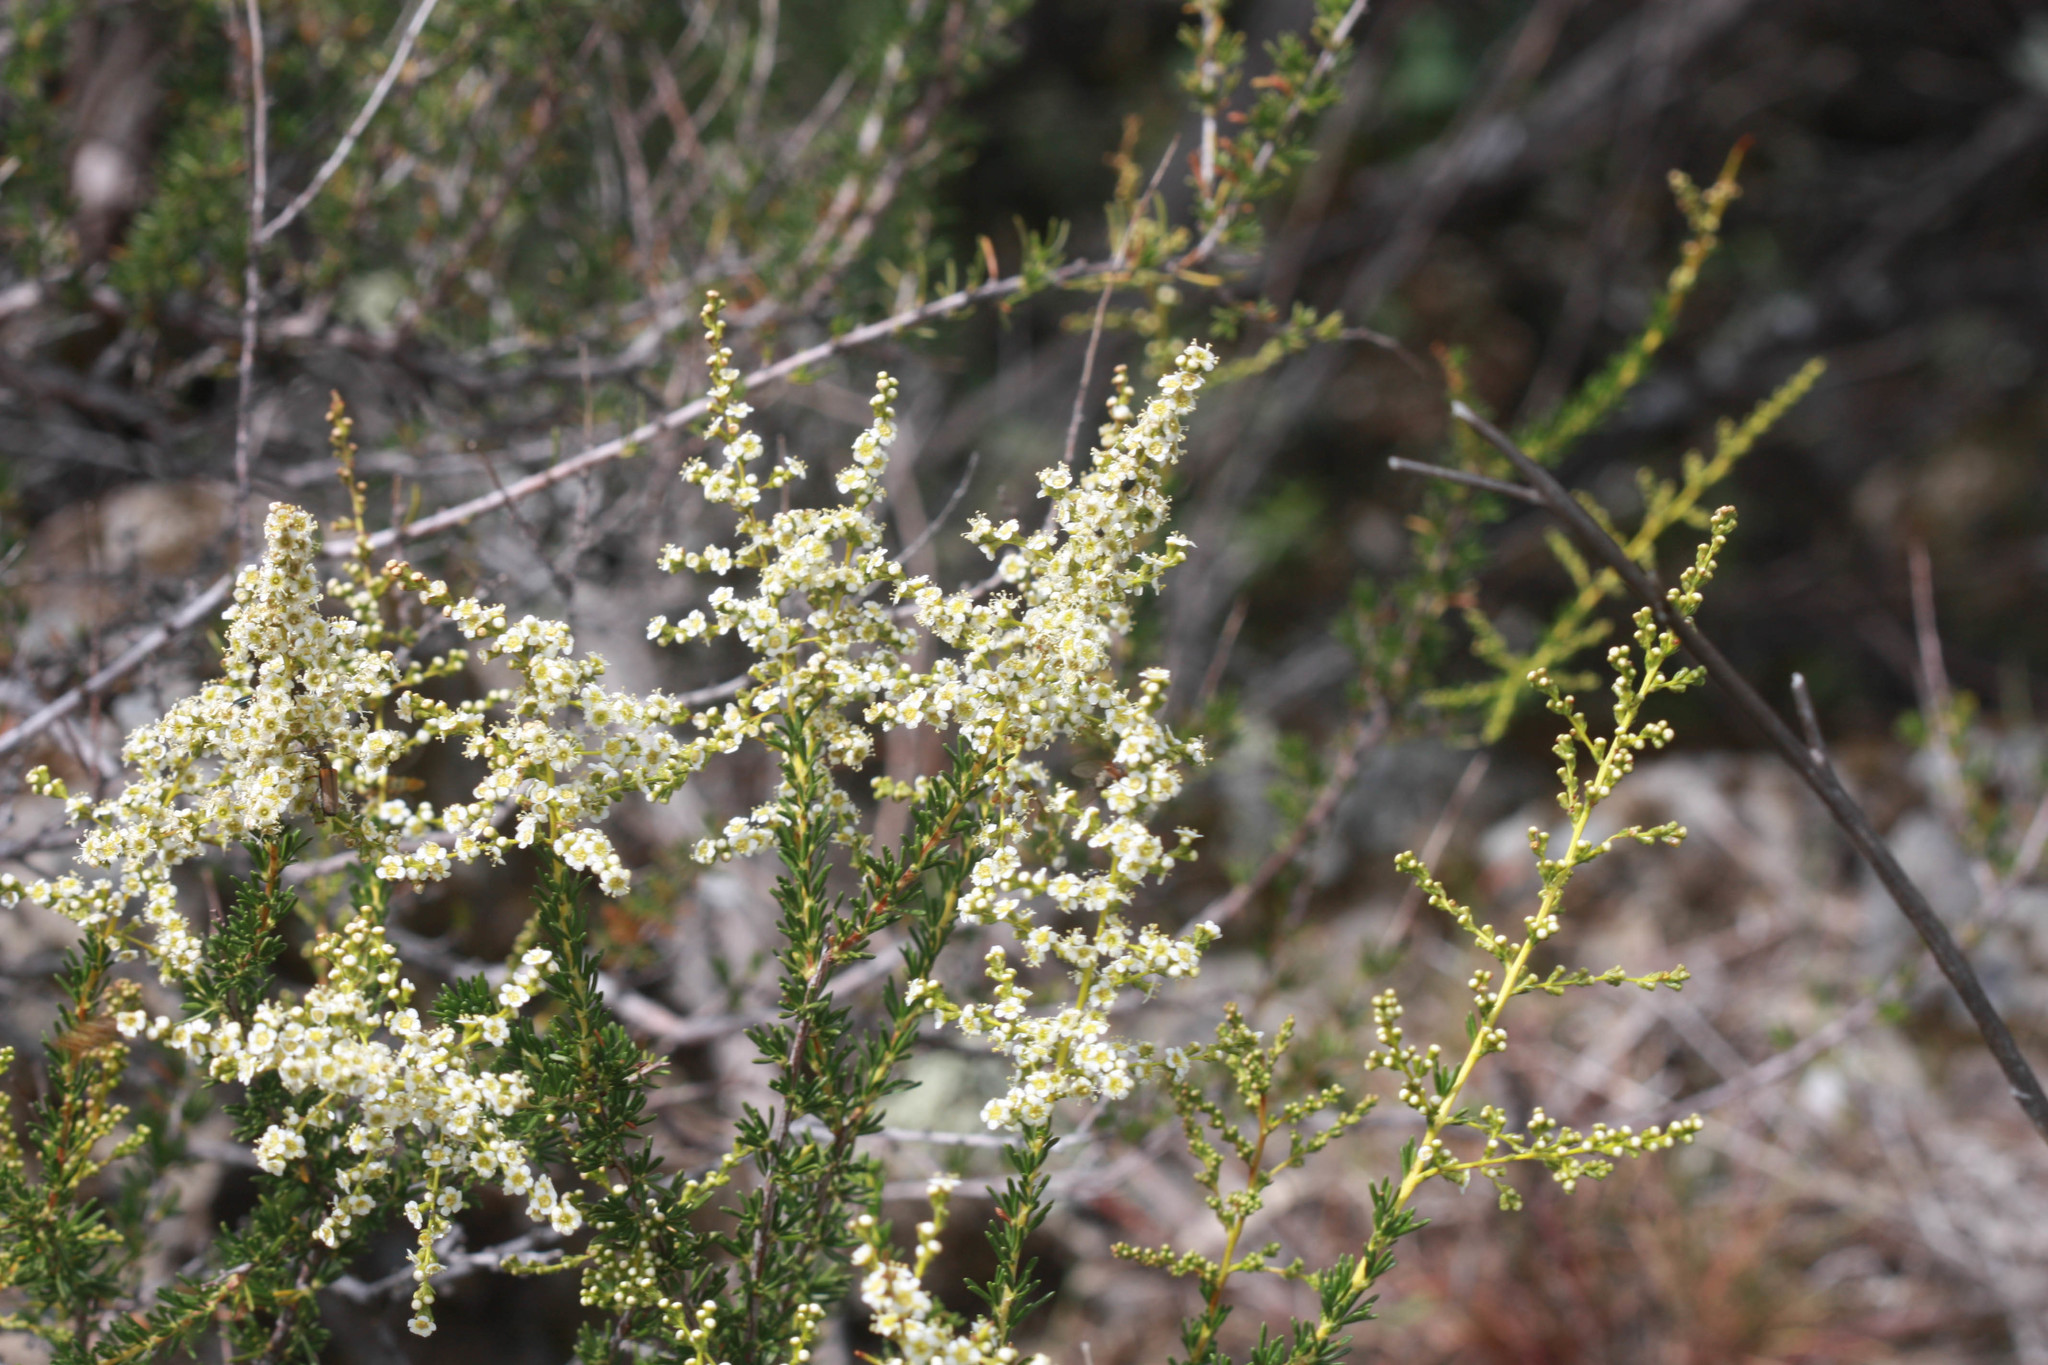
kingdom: Plantae
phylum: Tracheophyta
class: Magnoliopsida
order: Rosales
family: Rosaceae
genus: Adenostoma
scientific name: Adenostoma fasciculatum
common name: Chamise
